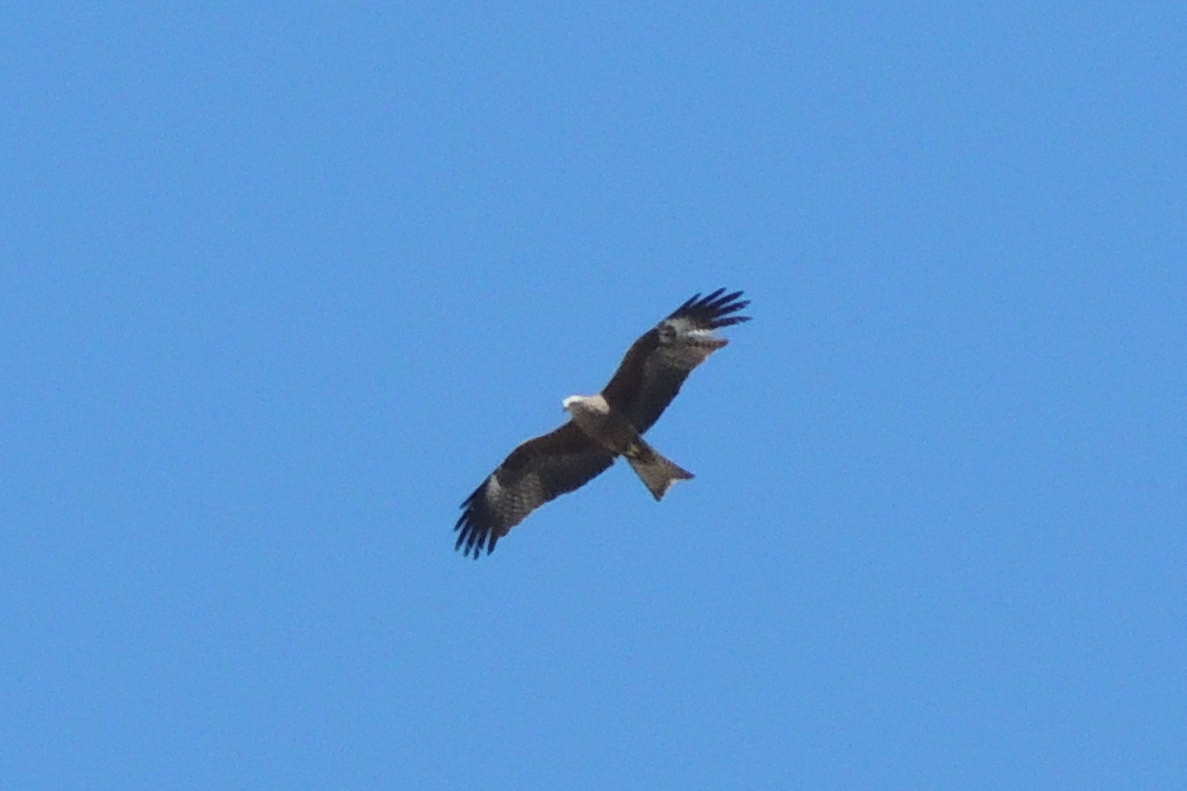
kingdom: Animalia
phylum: Chordata
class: Aves
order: Accipitriformes
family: Accipitridae
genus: Milvus
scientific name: Milvus migrans
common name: Black kite
